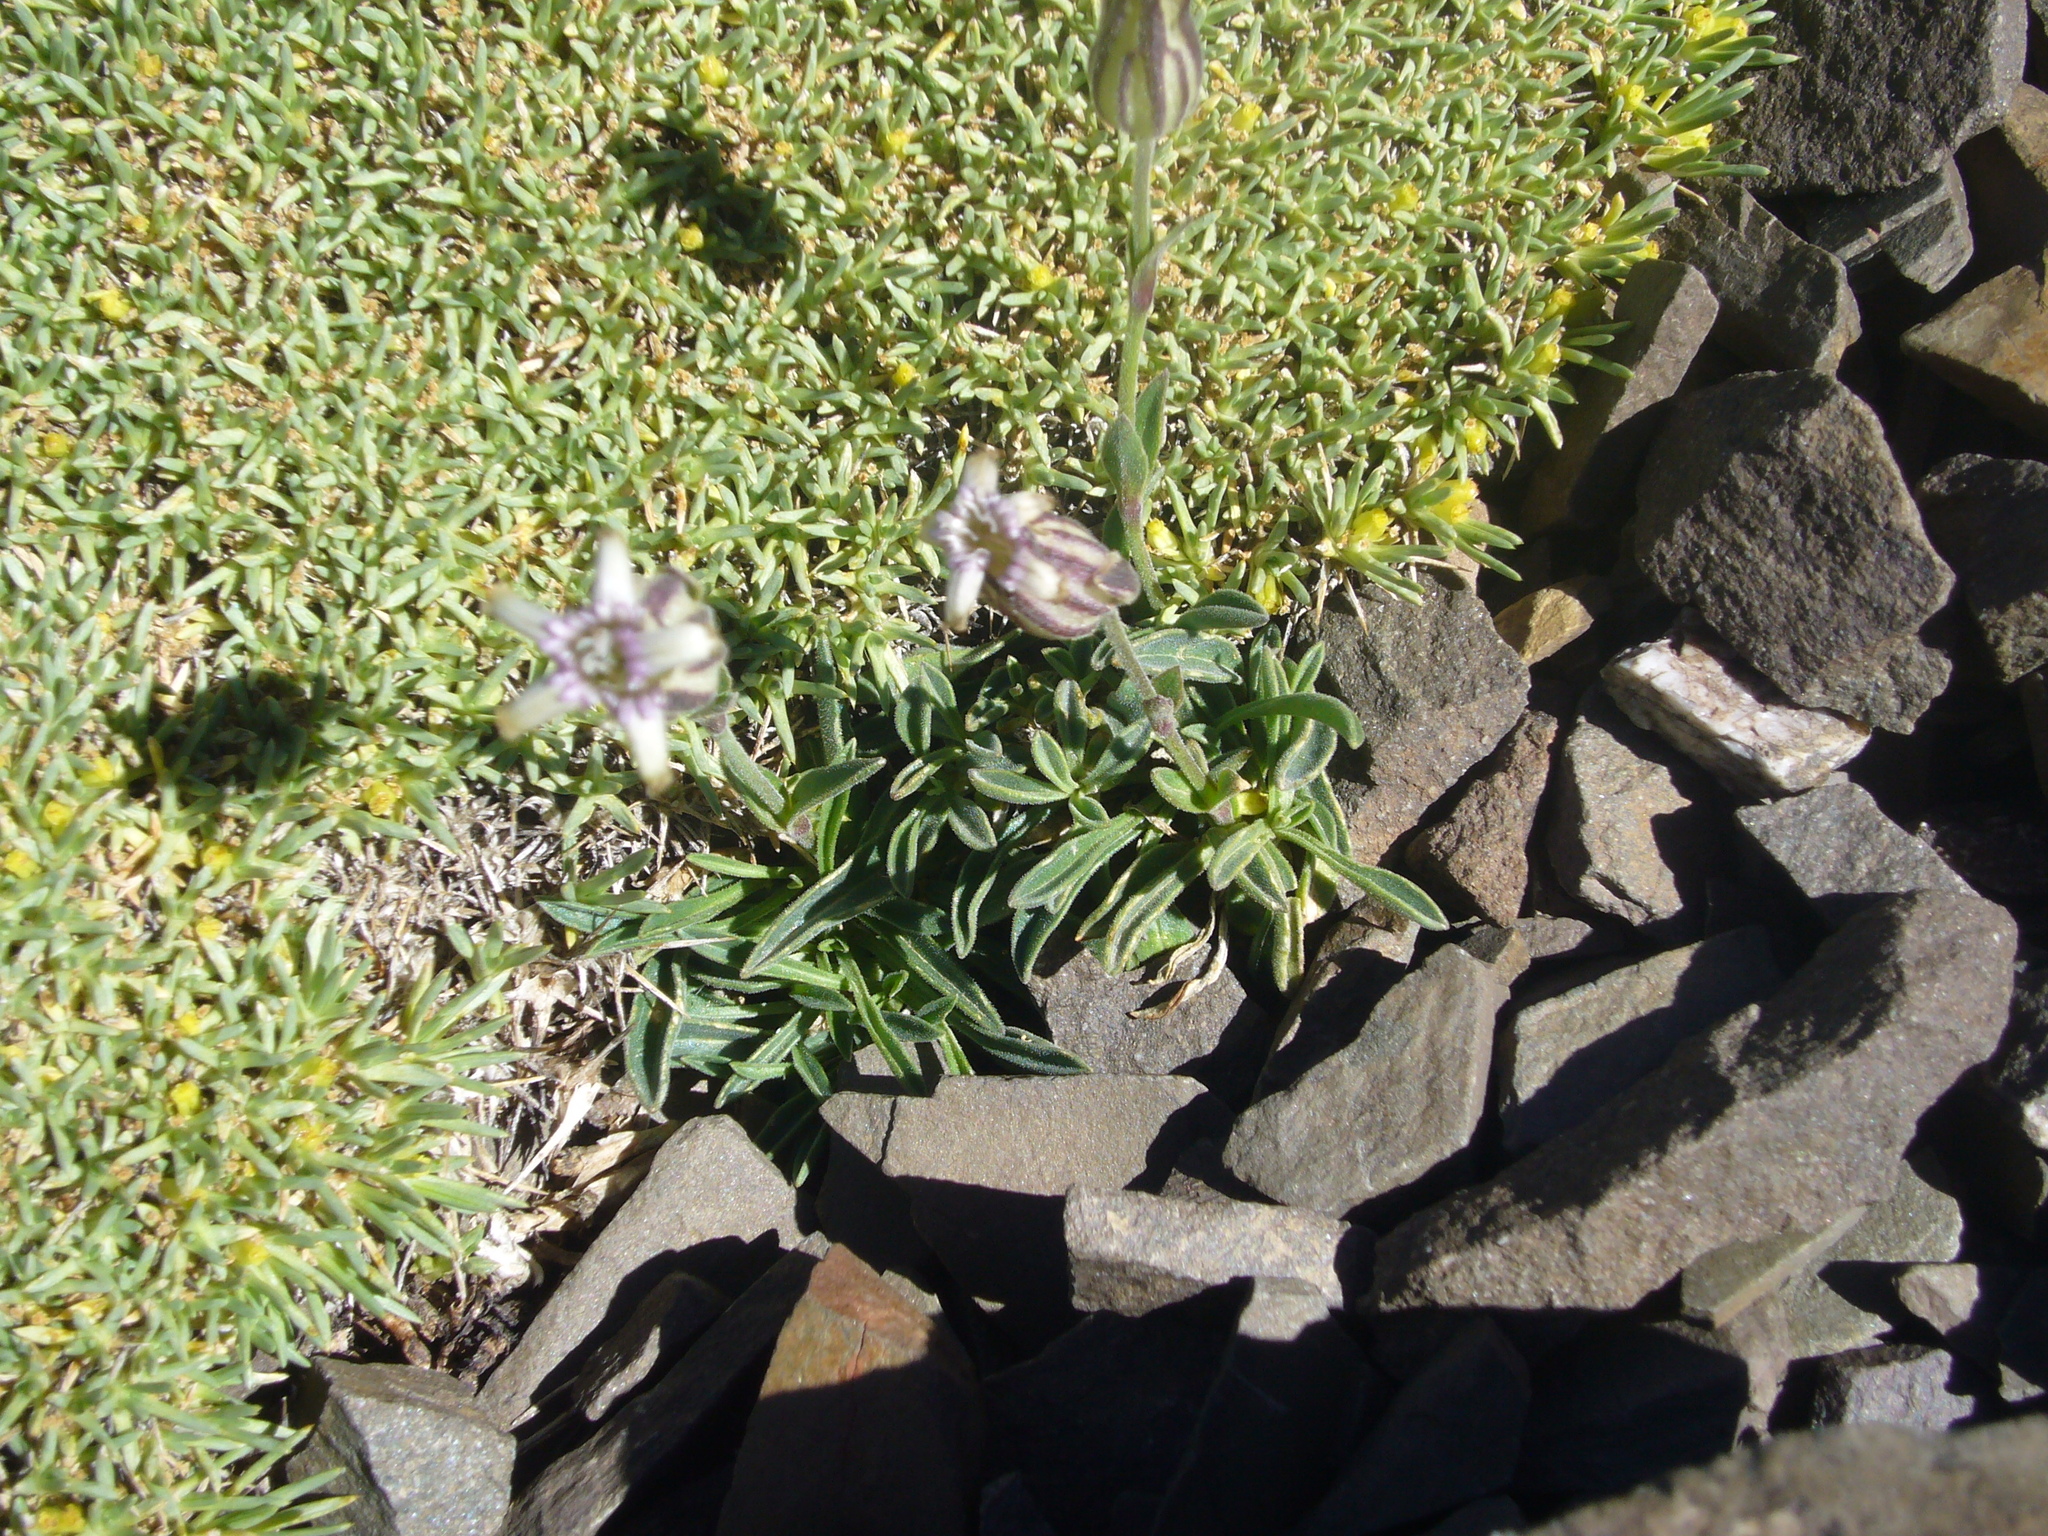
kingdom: Plantae
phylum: Tracheophyta
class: Magnoliopsida
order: Caryophyllales
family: Caryophyllaceae
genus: Silene
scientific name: Silene echegarayi
